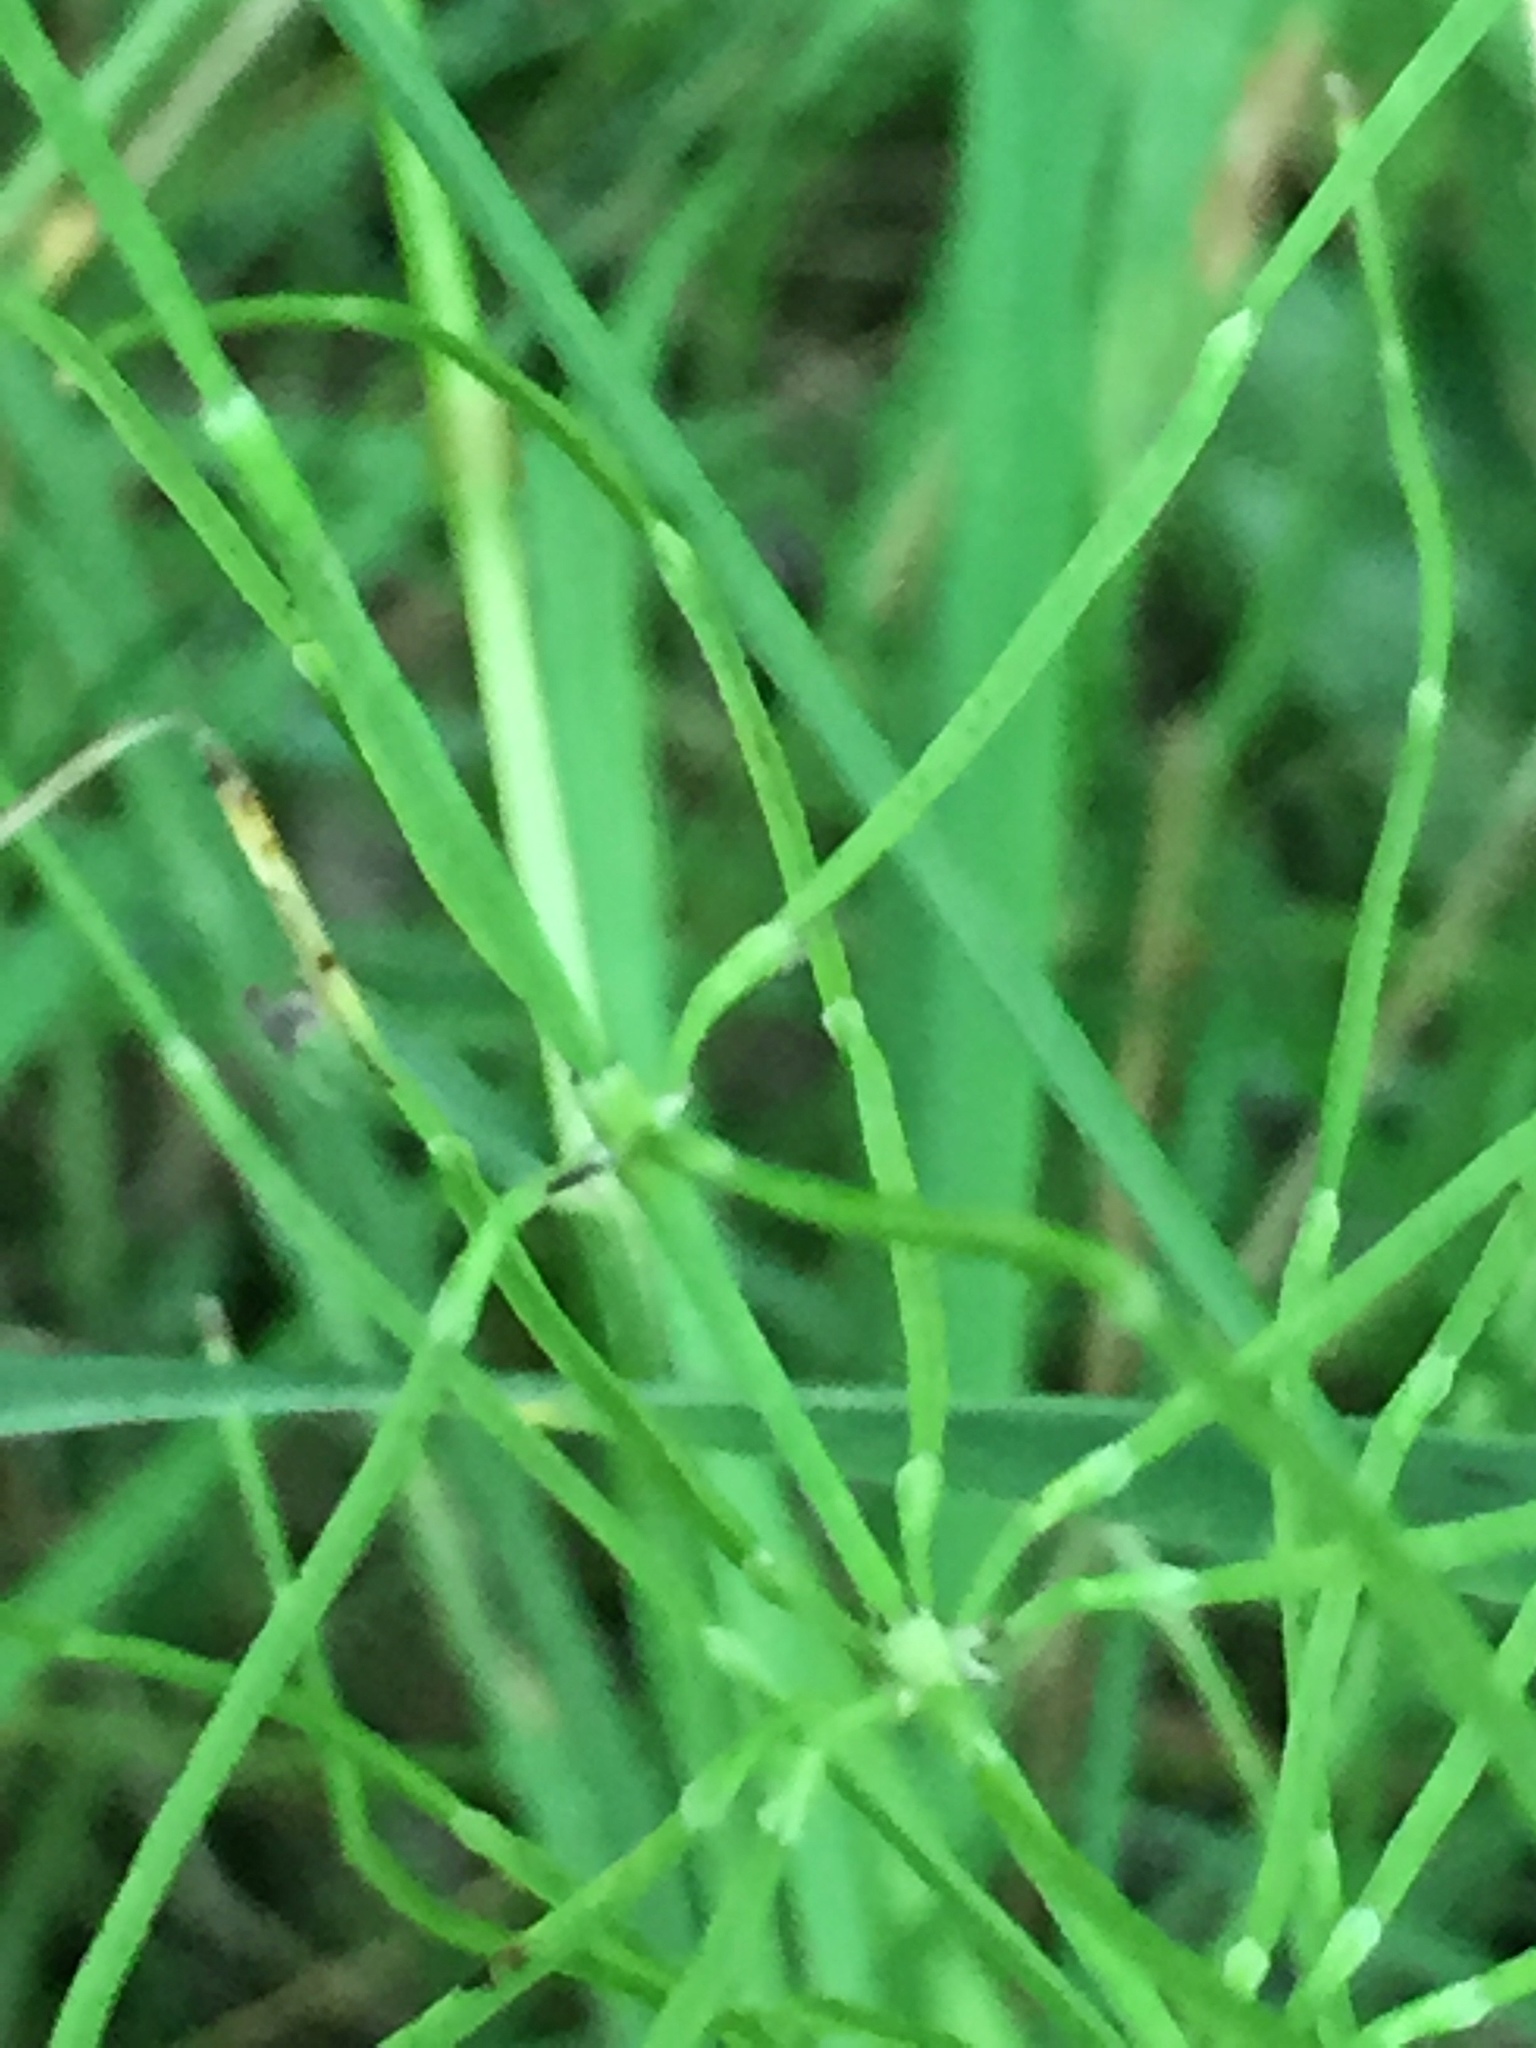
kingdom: Plantae
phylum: Tracheophyta
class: Polypodiopsida
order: Equisetales
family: Equisetaceae
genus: Equisetum
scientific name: Equisetum arvense
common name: Field horsetail
